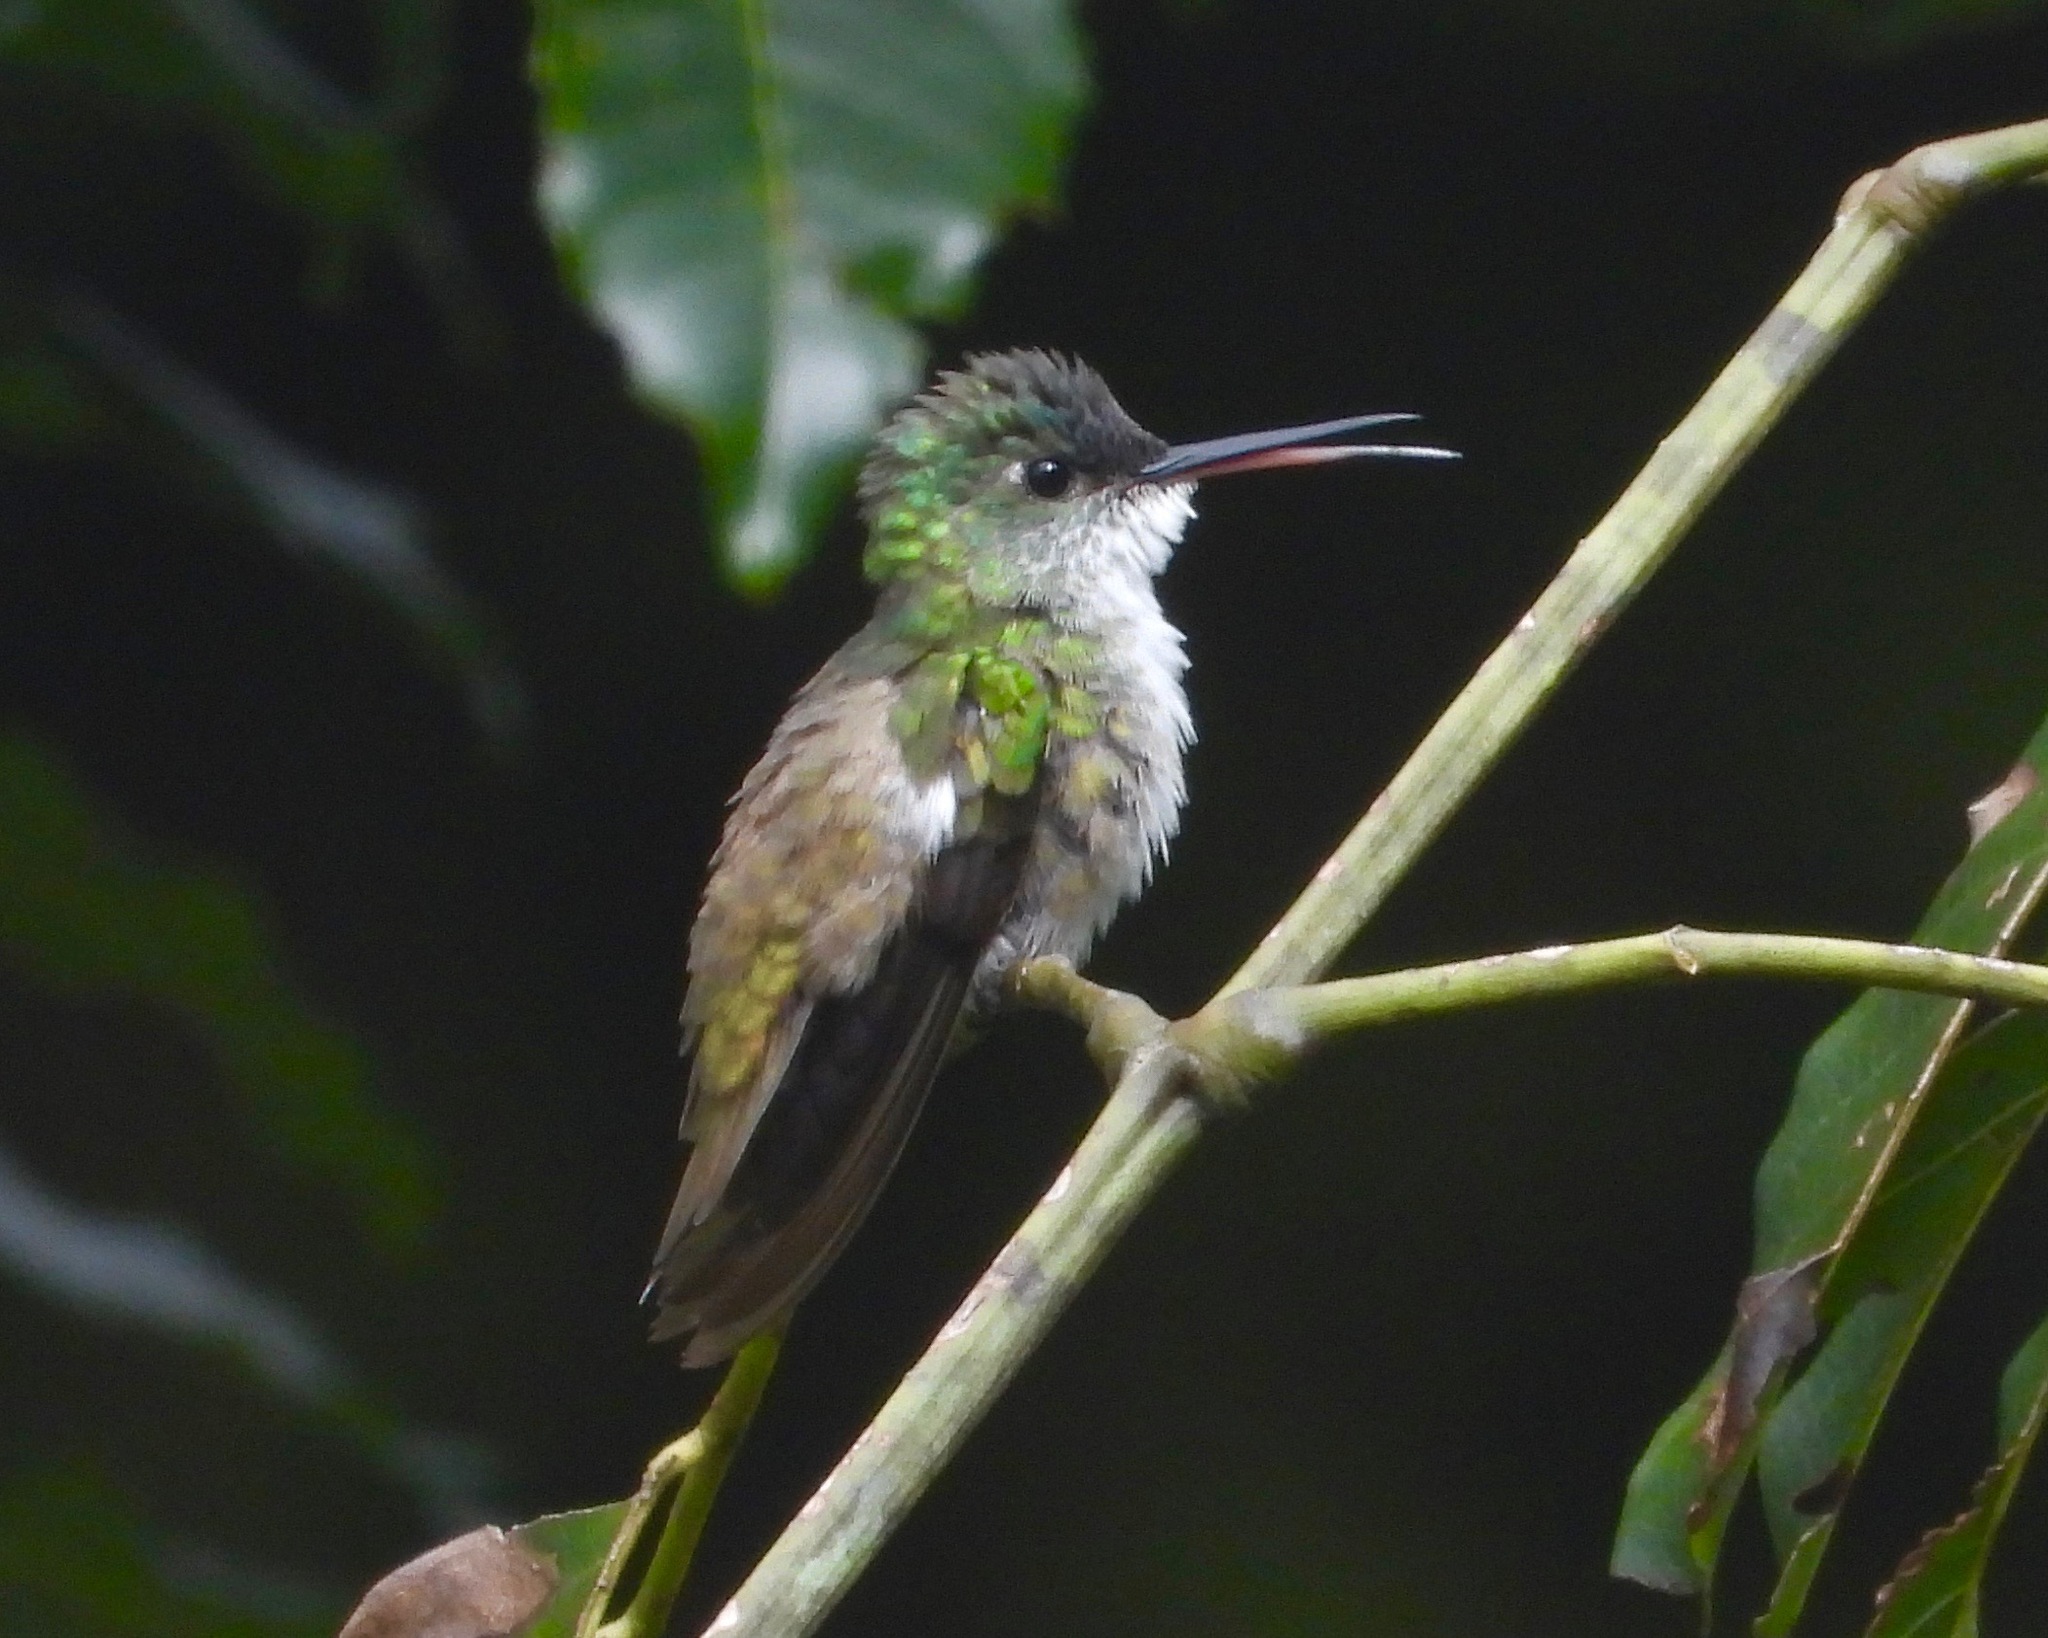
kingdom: Animalia
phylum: Chordata
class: Aves
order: Apodiformes
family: Trochilidae
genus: Saucerottia
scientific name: Saucerottia cyanocephala
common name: Azure-crowned hummingbird
